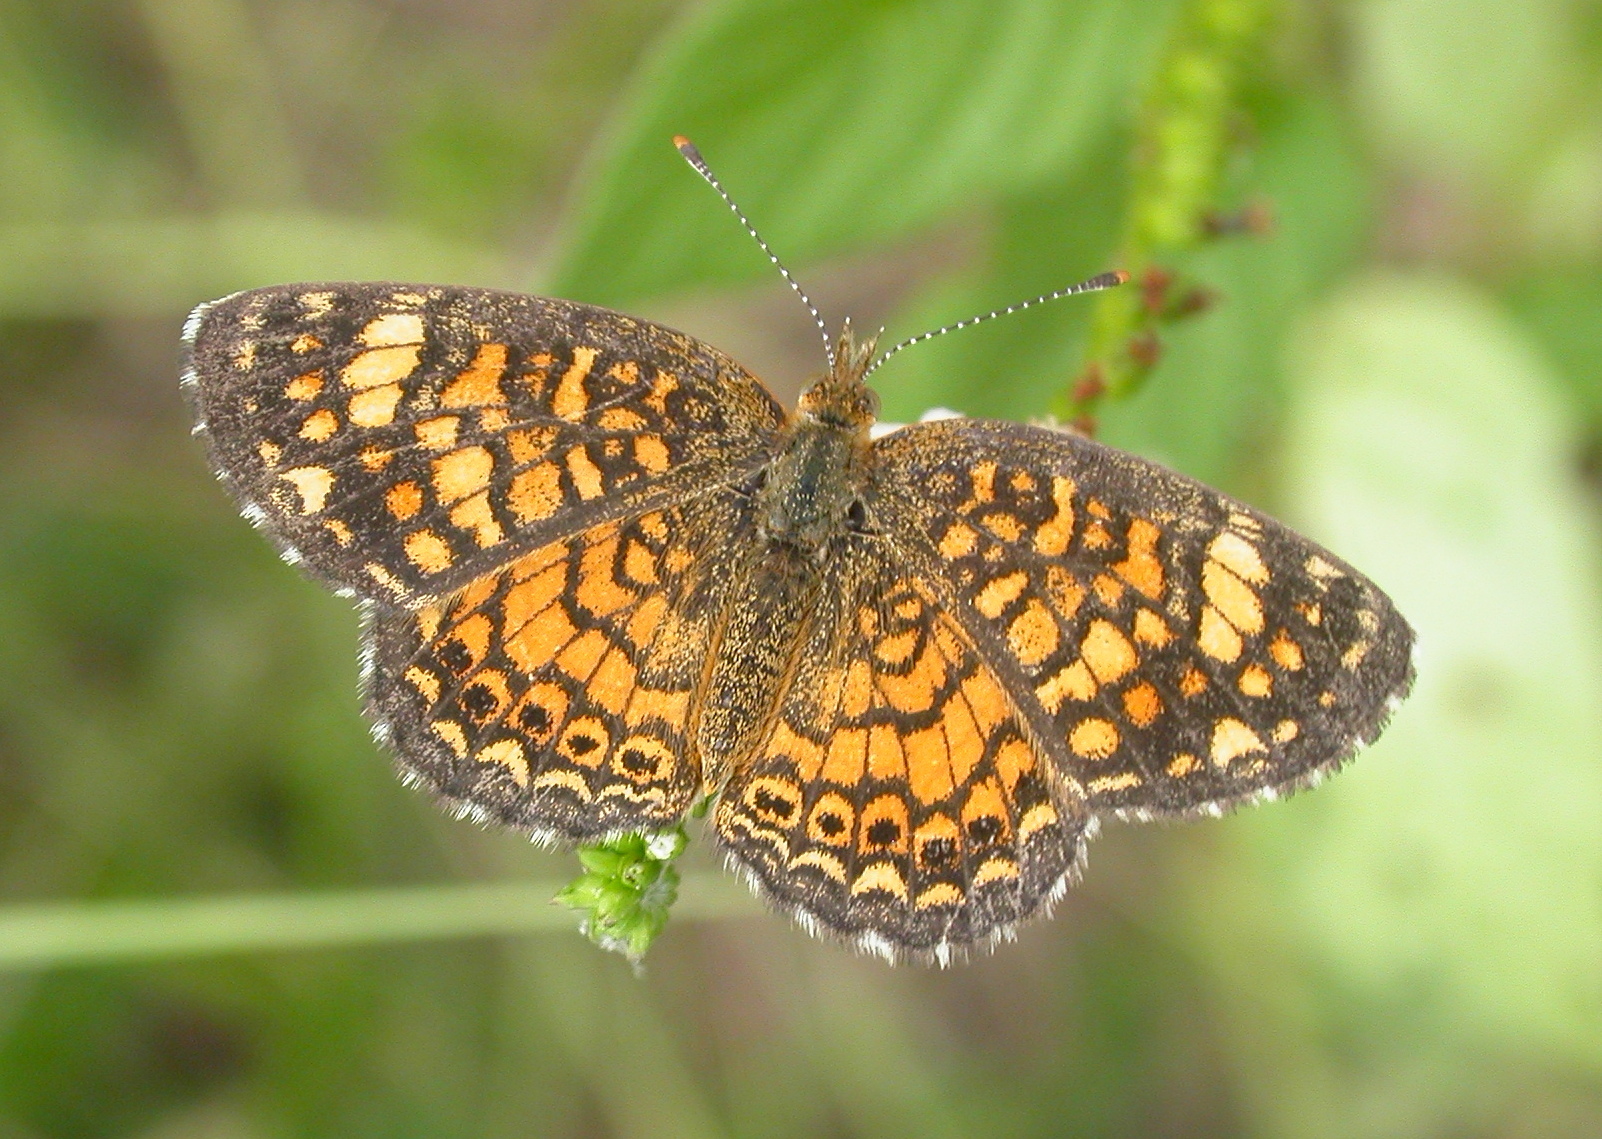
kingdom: Animalia
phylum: Arthropoda
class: Insecta
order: Lepidoptera
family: Nymphalidae
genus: Phyciodes
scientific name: Phyciodes vesta
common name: Vesta crescent
